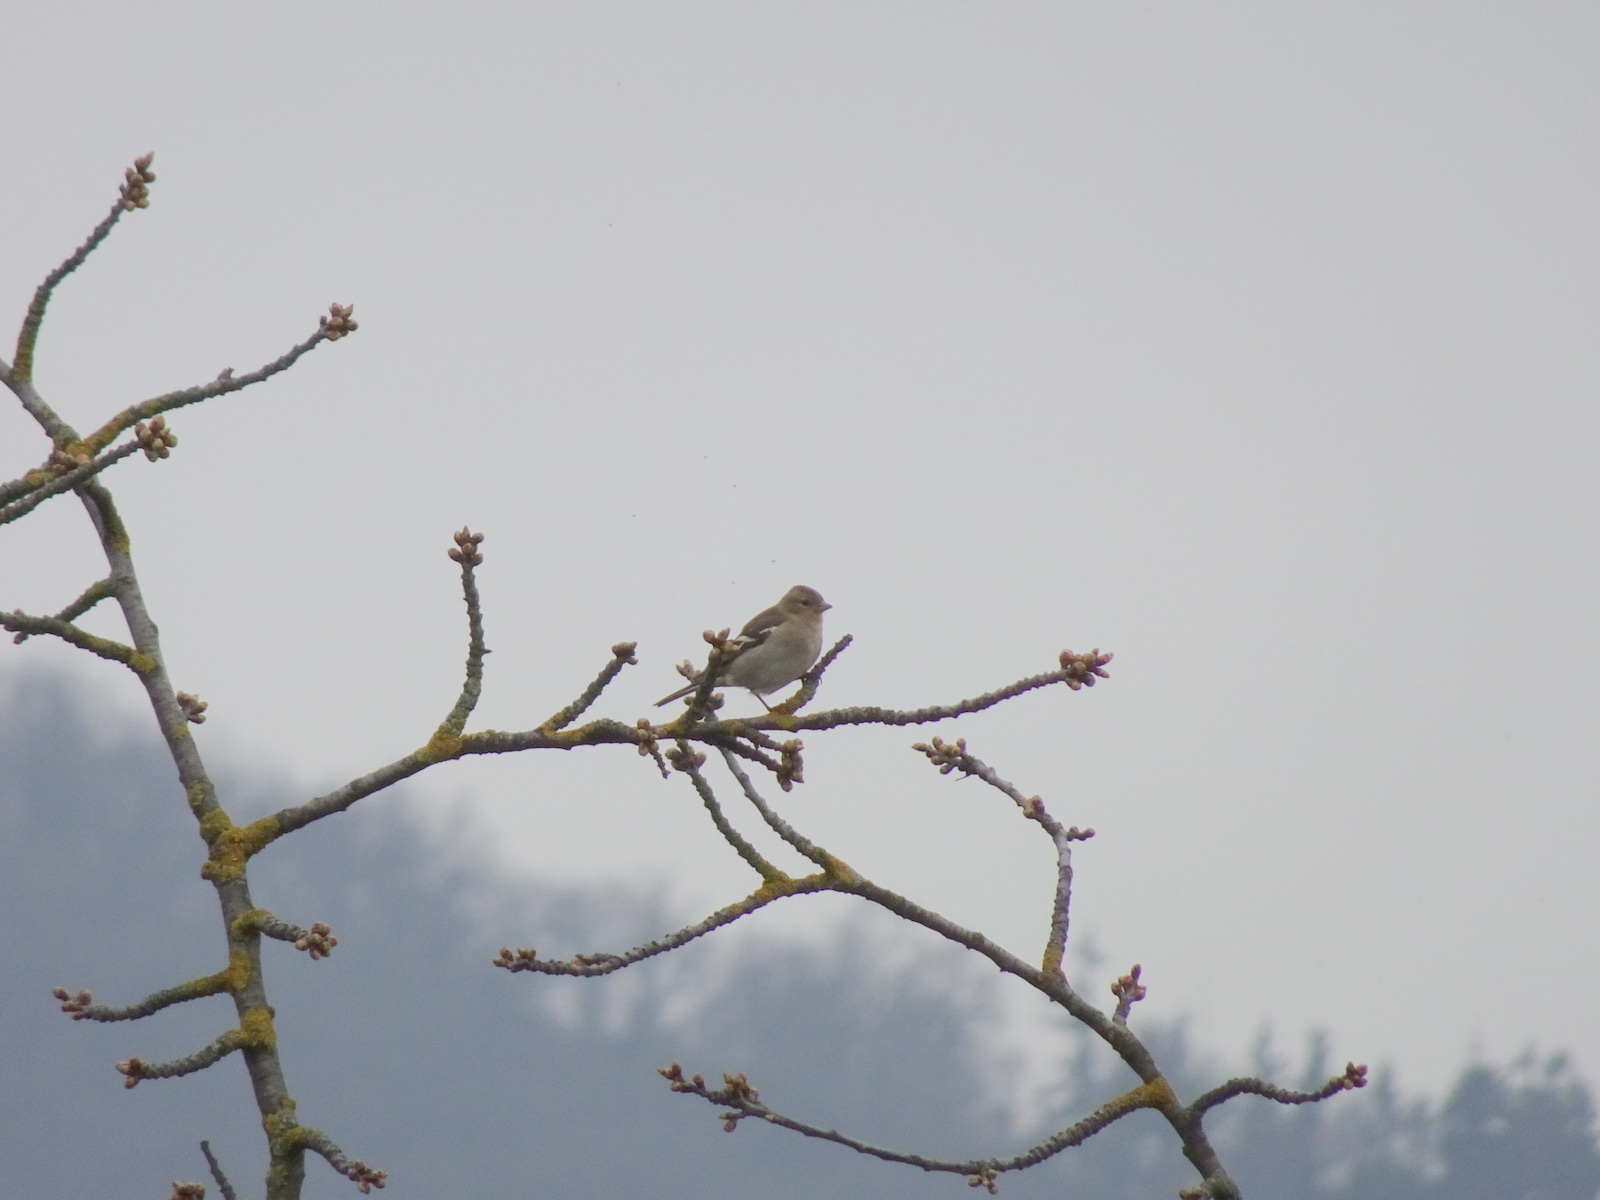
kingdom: Animalia
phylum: Chordata
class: Aves
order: Passeriformes
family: Fringillidae
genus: Fringilla
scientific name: Fringilla coelebs
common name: Common chaffinch
